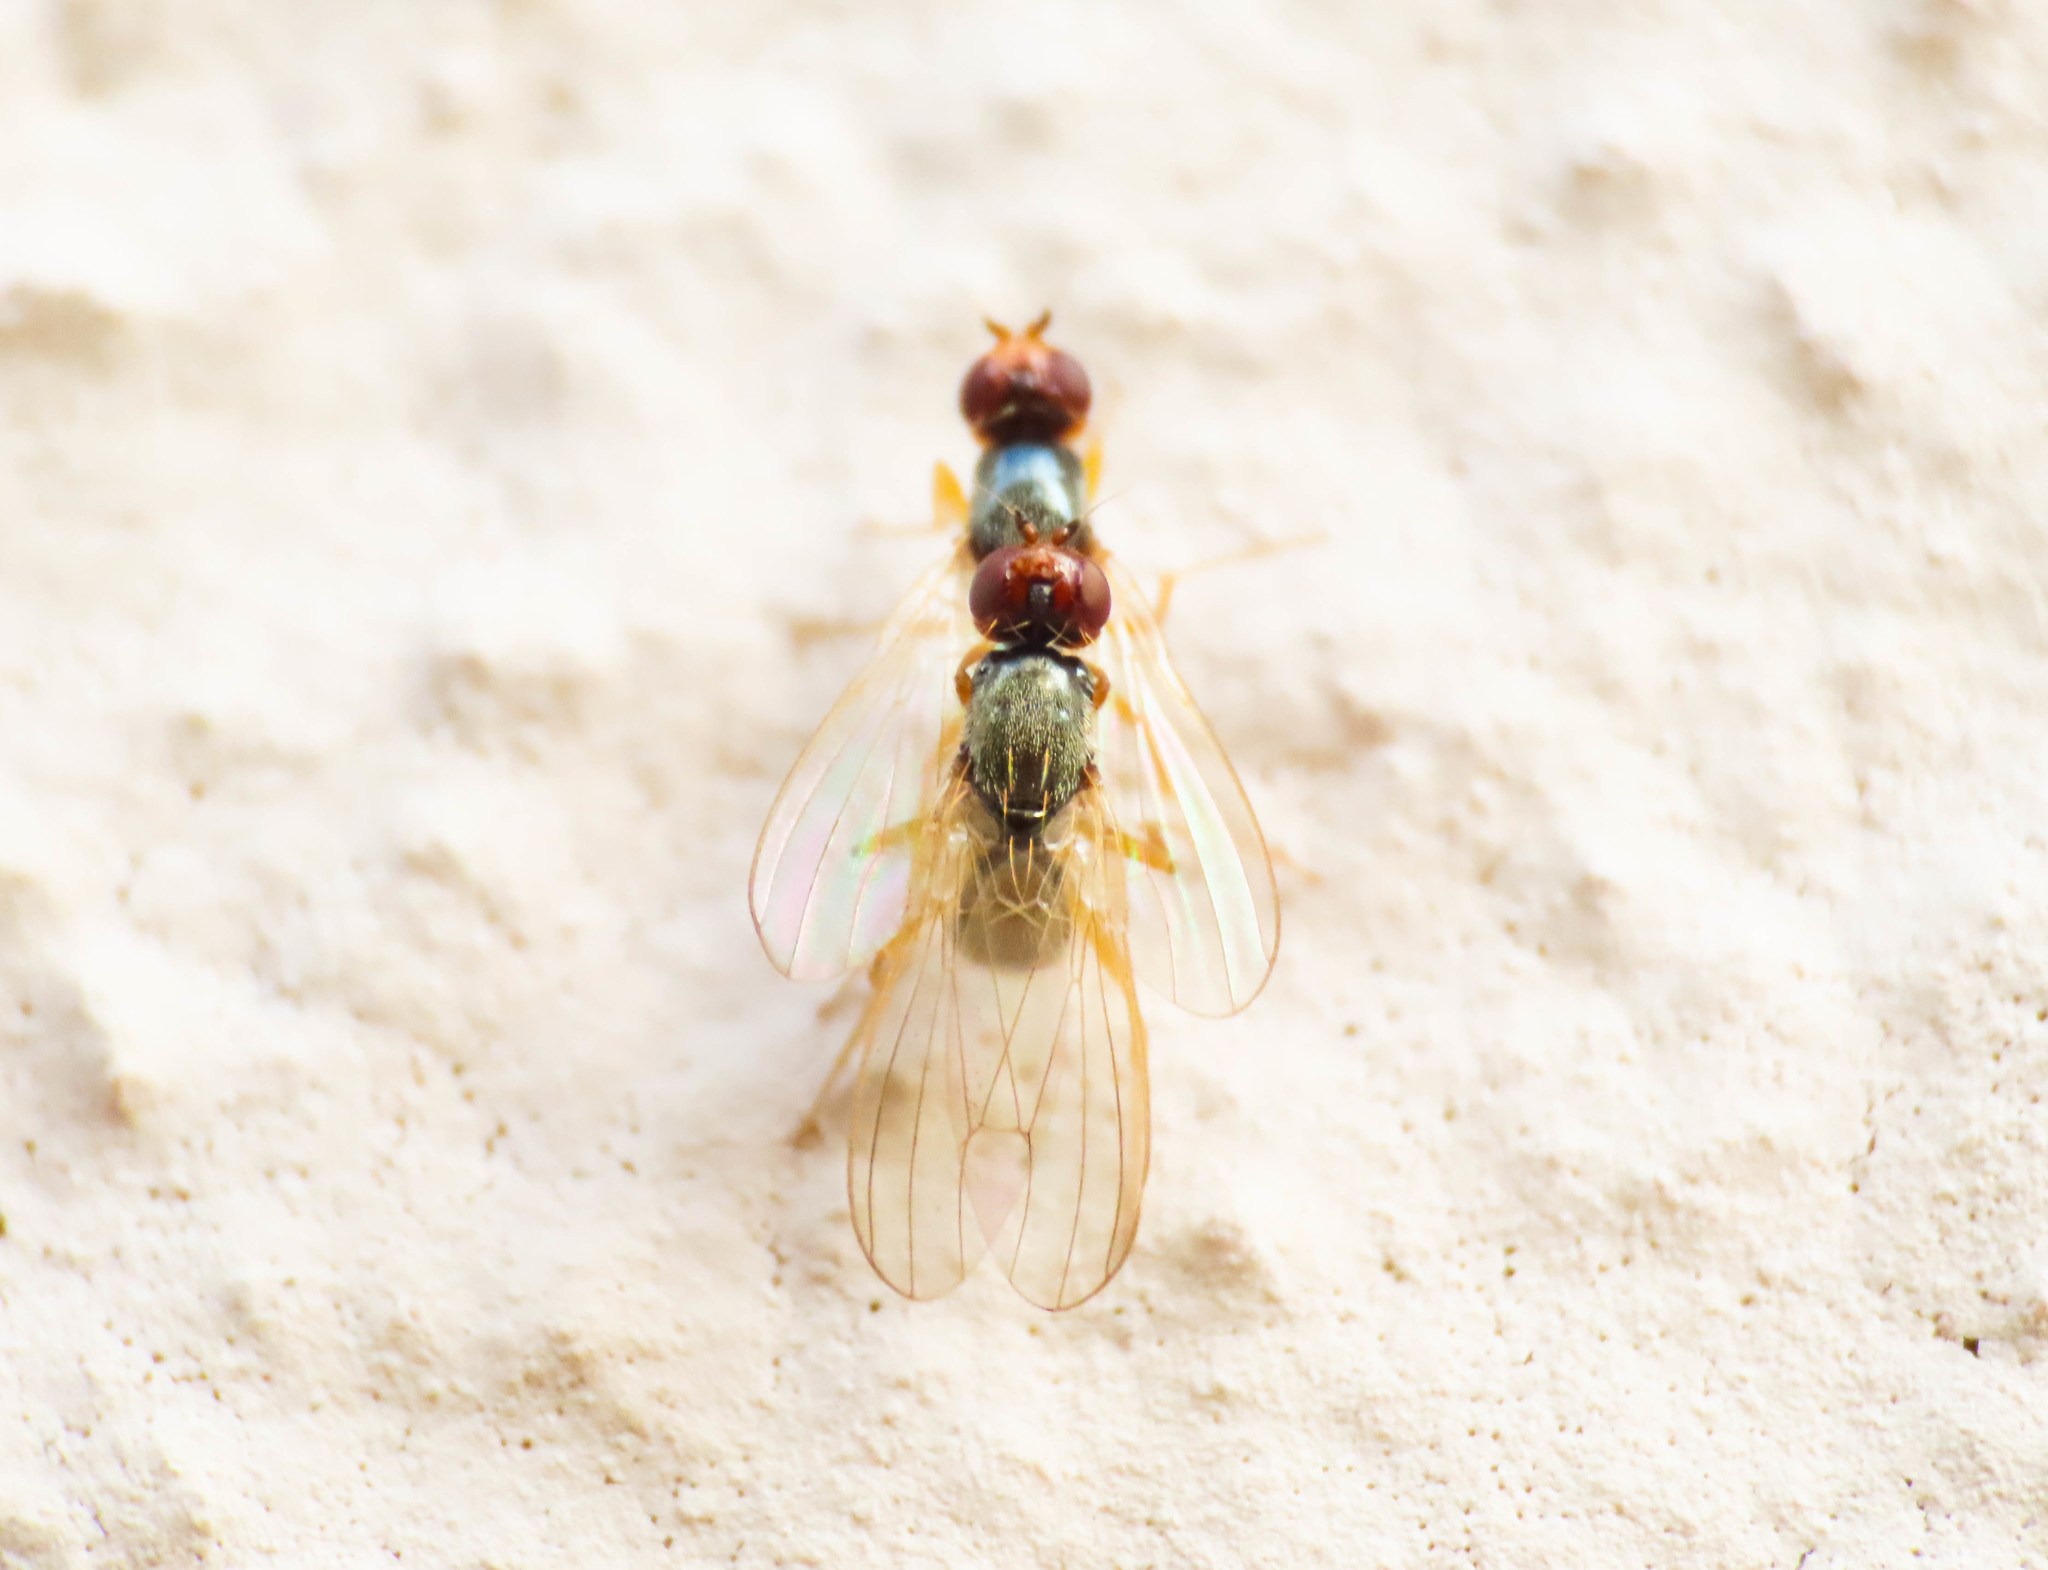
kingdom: Animalia
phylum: Arthropoda
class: Insecta
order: Diptera
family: Psilidae
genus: Chamaepsila
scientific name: Chamaepsila
